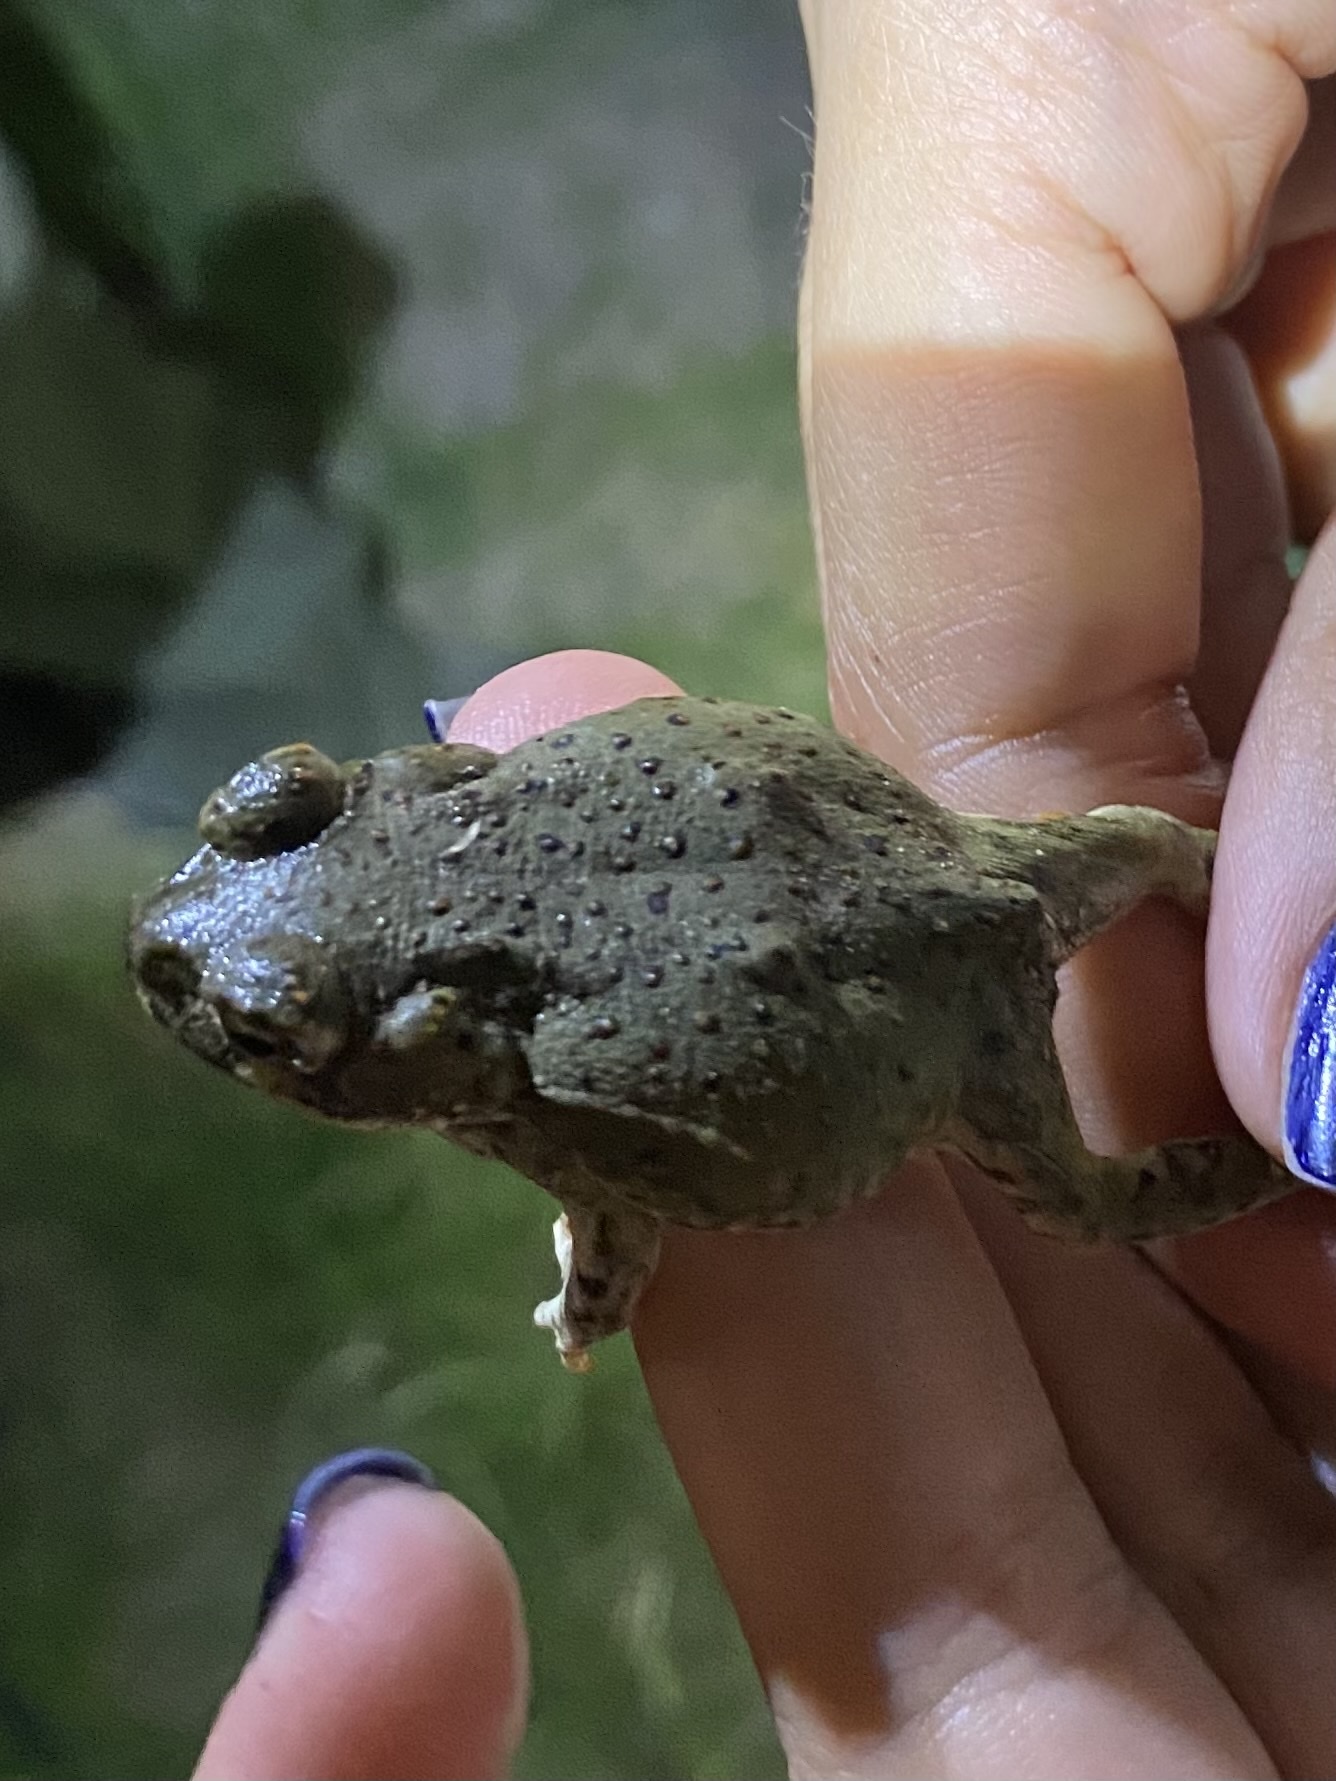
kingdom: Animalia
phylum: Chordata
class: Amphibia
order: Anura
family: Bufonidae
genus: Incilius
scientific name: Incilius alvarius
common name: Sonoran desert toad
